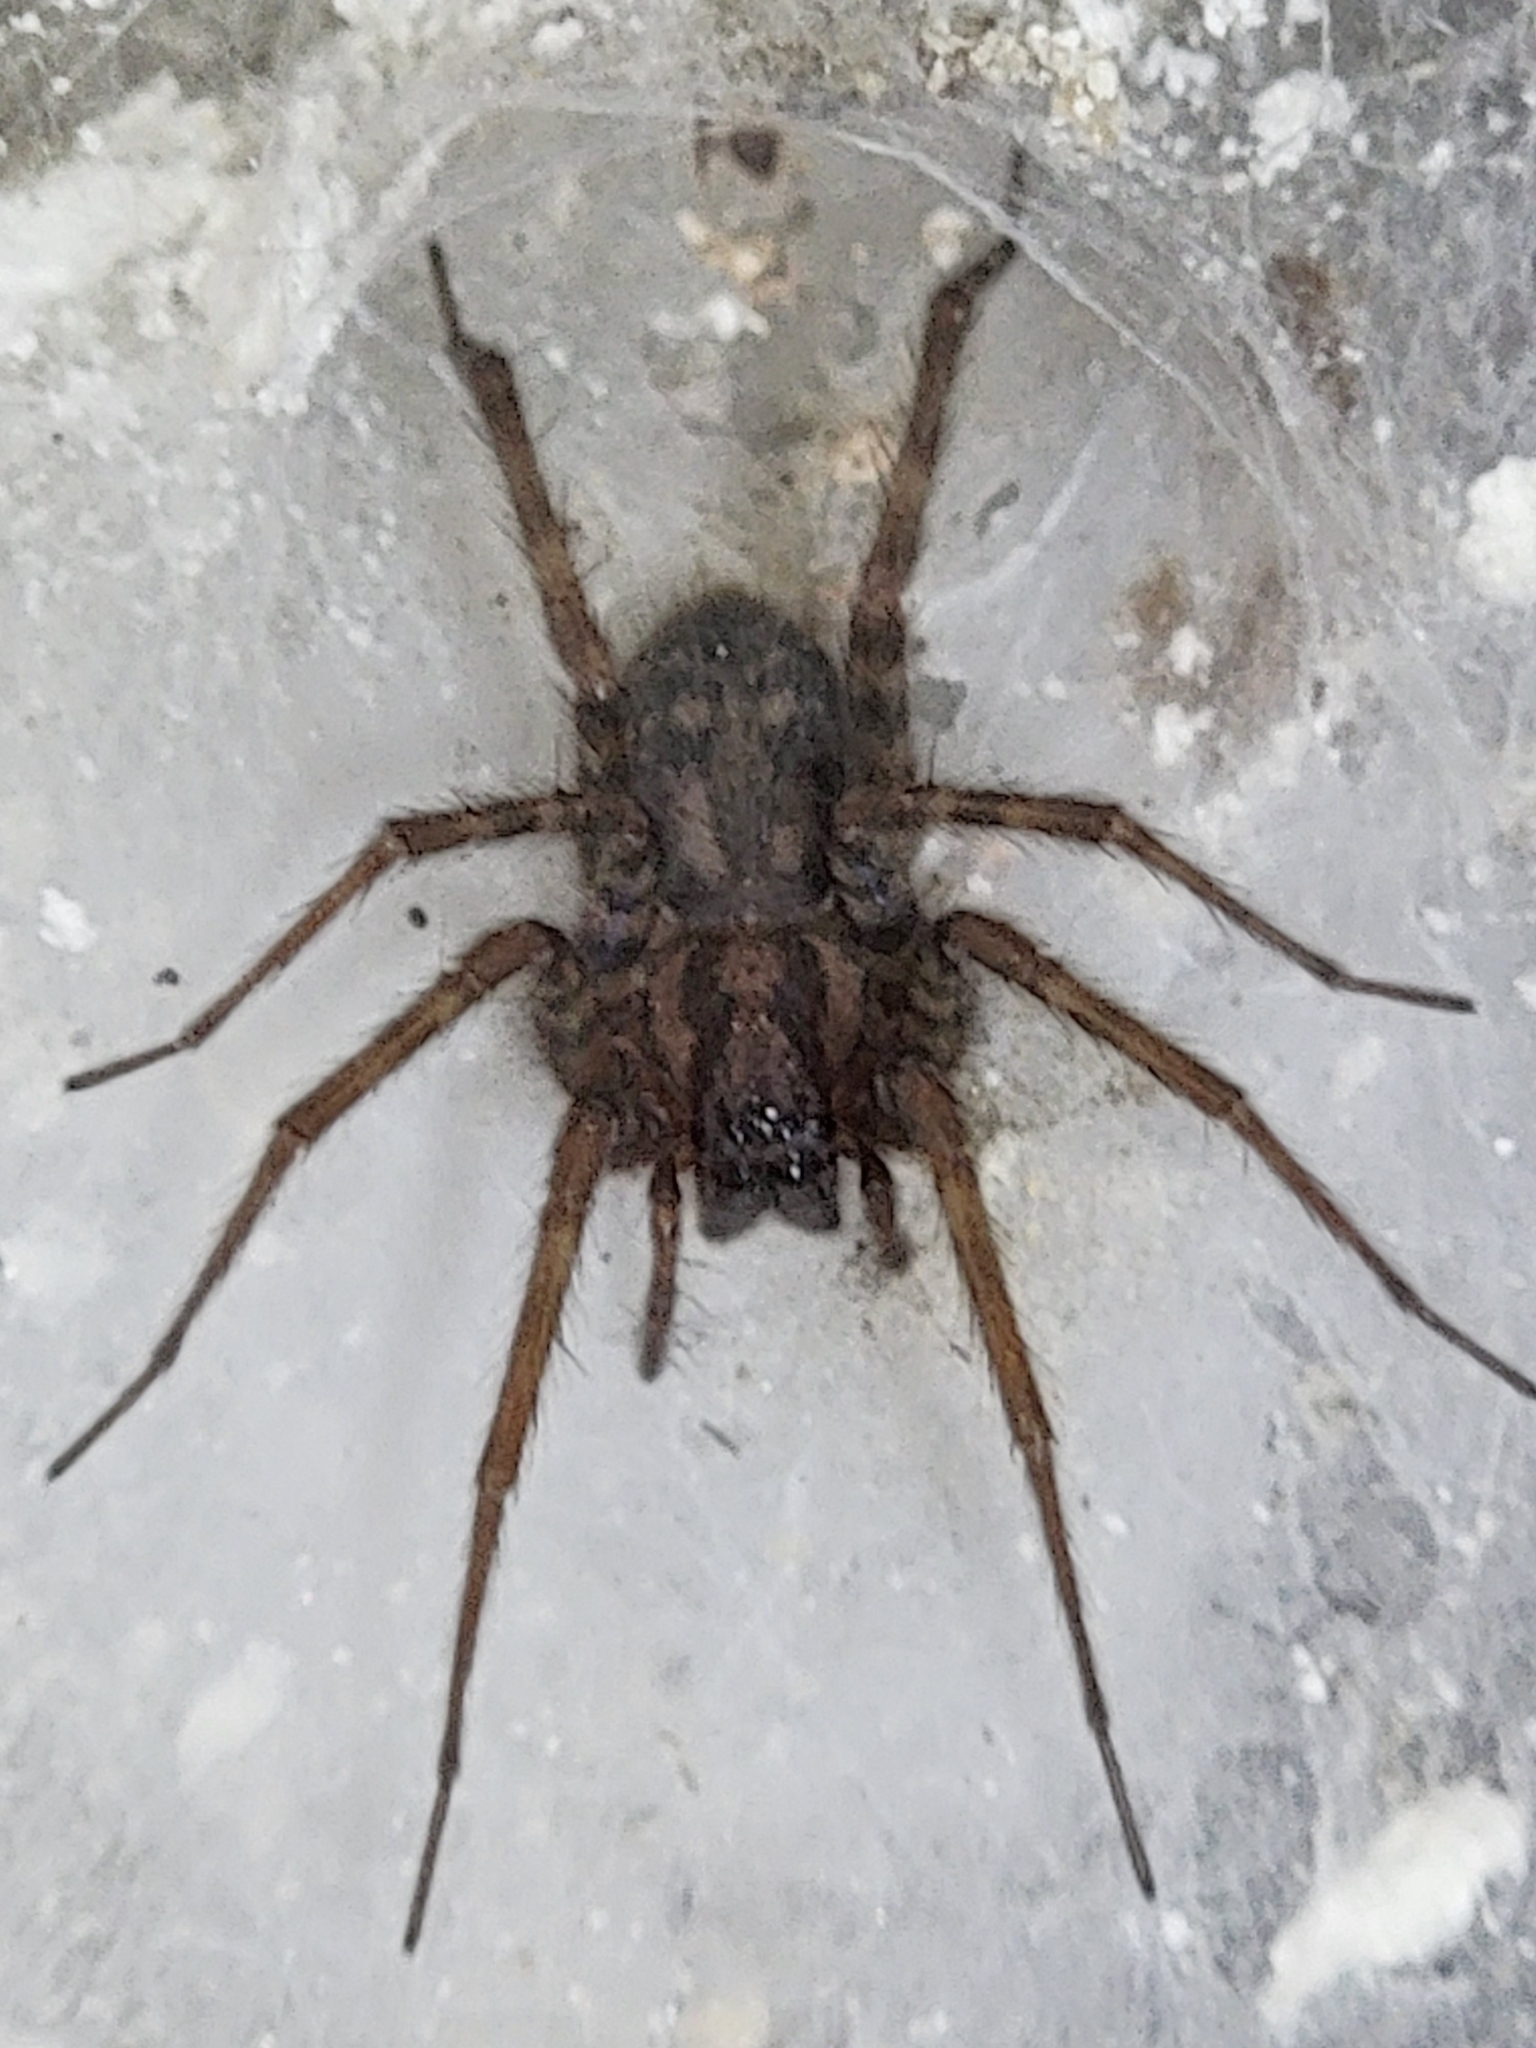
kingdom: Animalia
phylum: Arthropoda
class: Arachnida
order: Araneae
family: Agelenidae
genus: Tegenaria
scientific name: Tegenaria domestica
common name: Barn funnel weaver
